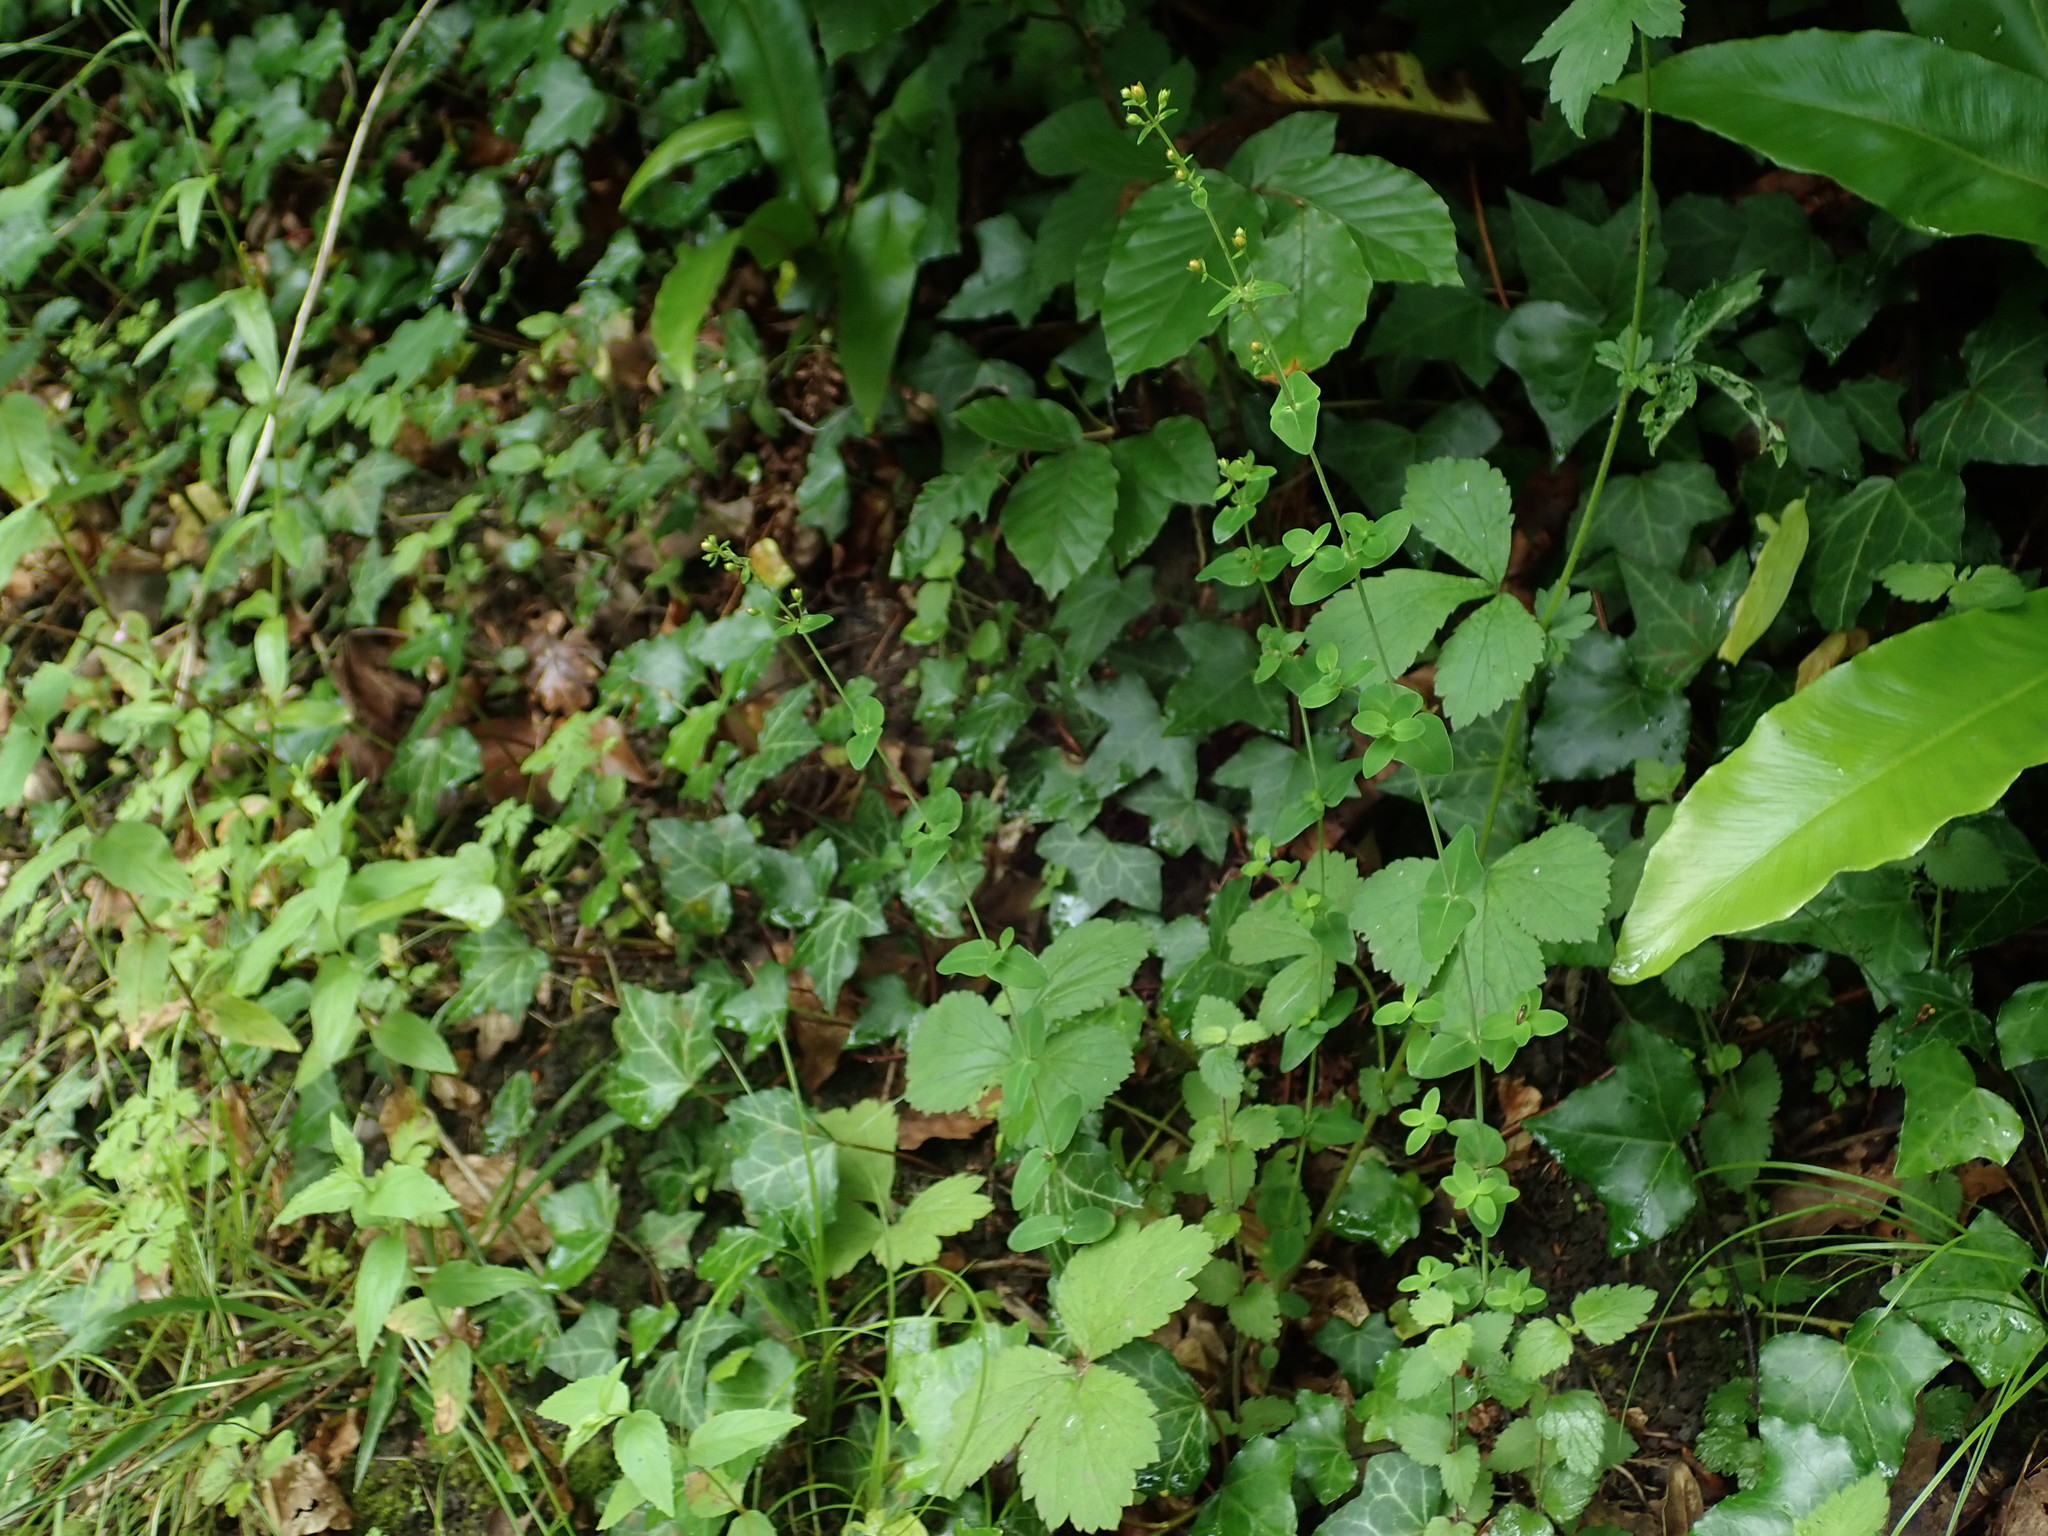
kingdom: Plantae
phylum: Tracheophyta
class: Magnoliopsida
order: Malpighiales
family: Hypericaceae
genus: Hypericum
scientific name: Hypericum pulchrum
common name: Slender st. john's-wort
